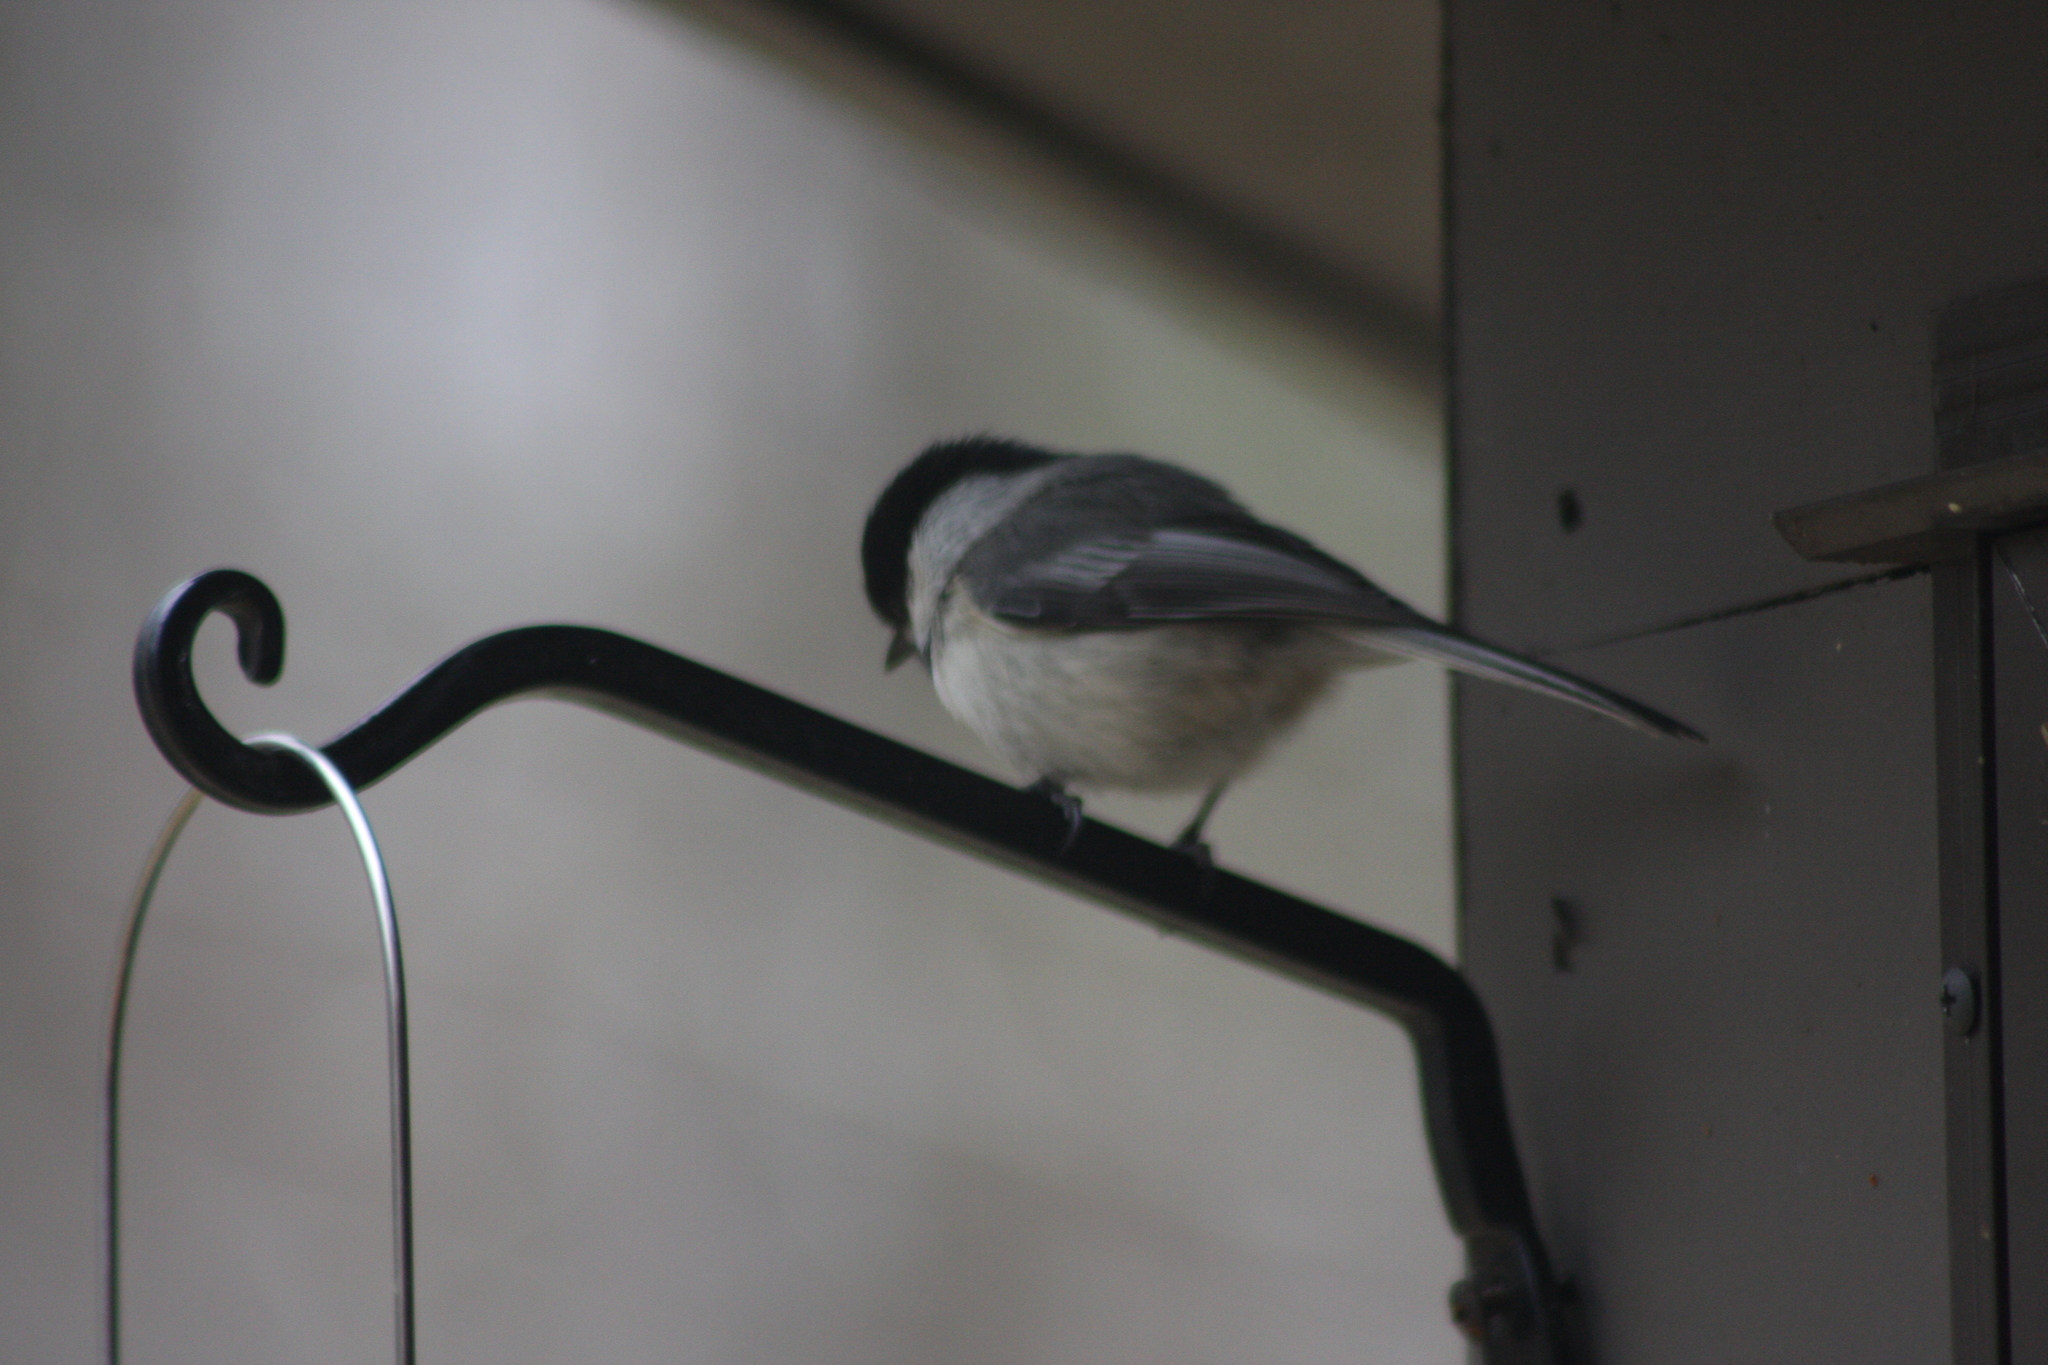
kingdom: Animalia
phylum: Chordata
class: Aves
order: Passeriformes
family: Paridae
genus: Poecile
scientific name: Poecile atricapillus
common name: Black-capped chickadee
